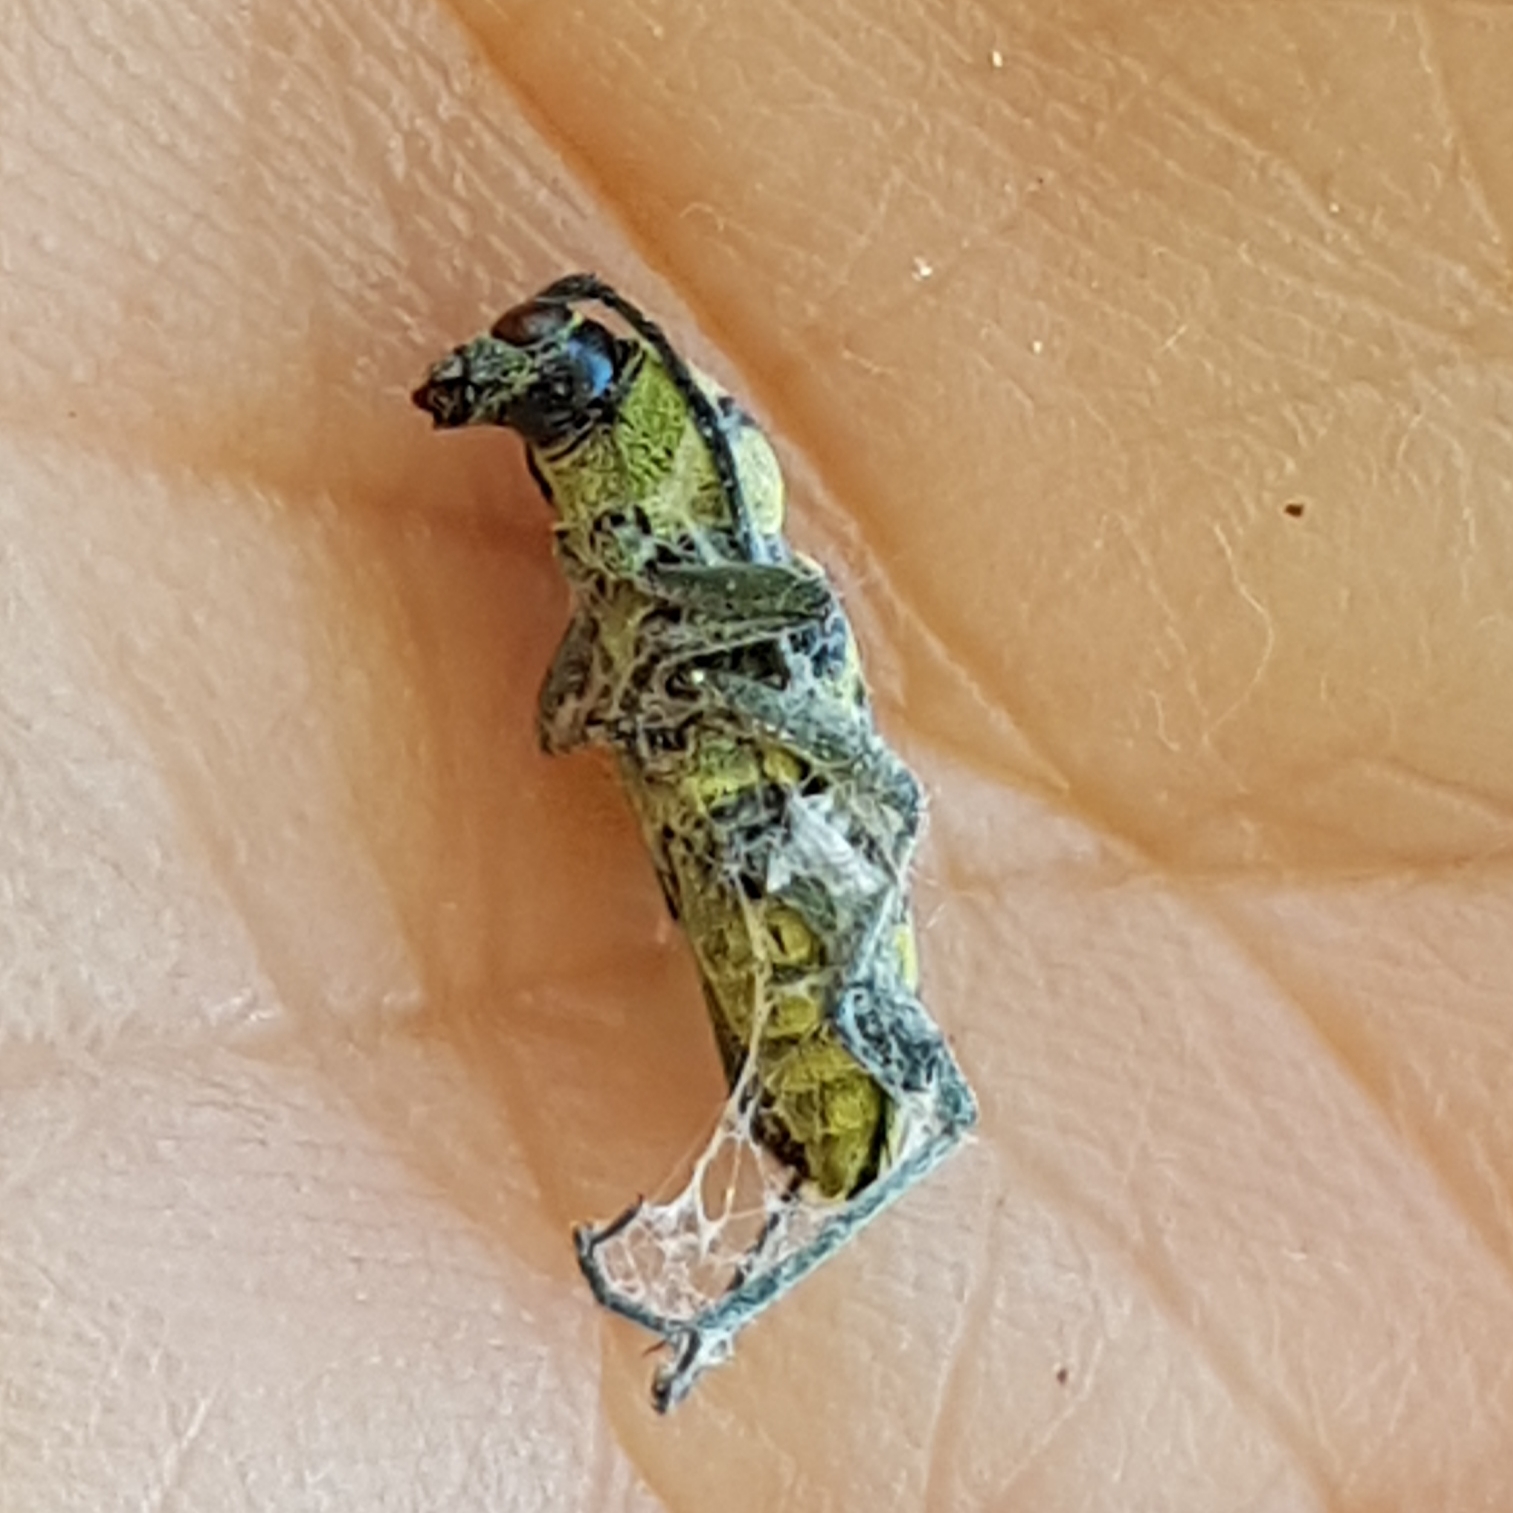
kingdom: Animalia
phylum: Arthropoda
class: Insecta
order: Coleoptera
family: Cerambycidae
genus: Chlorophorus
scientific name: Chlorophorus varius
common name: Grape wood borer
